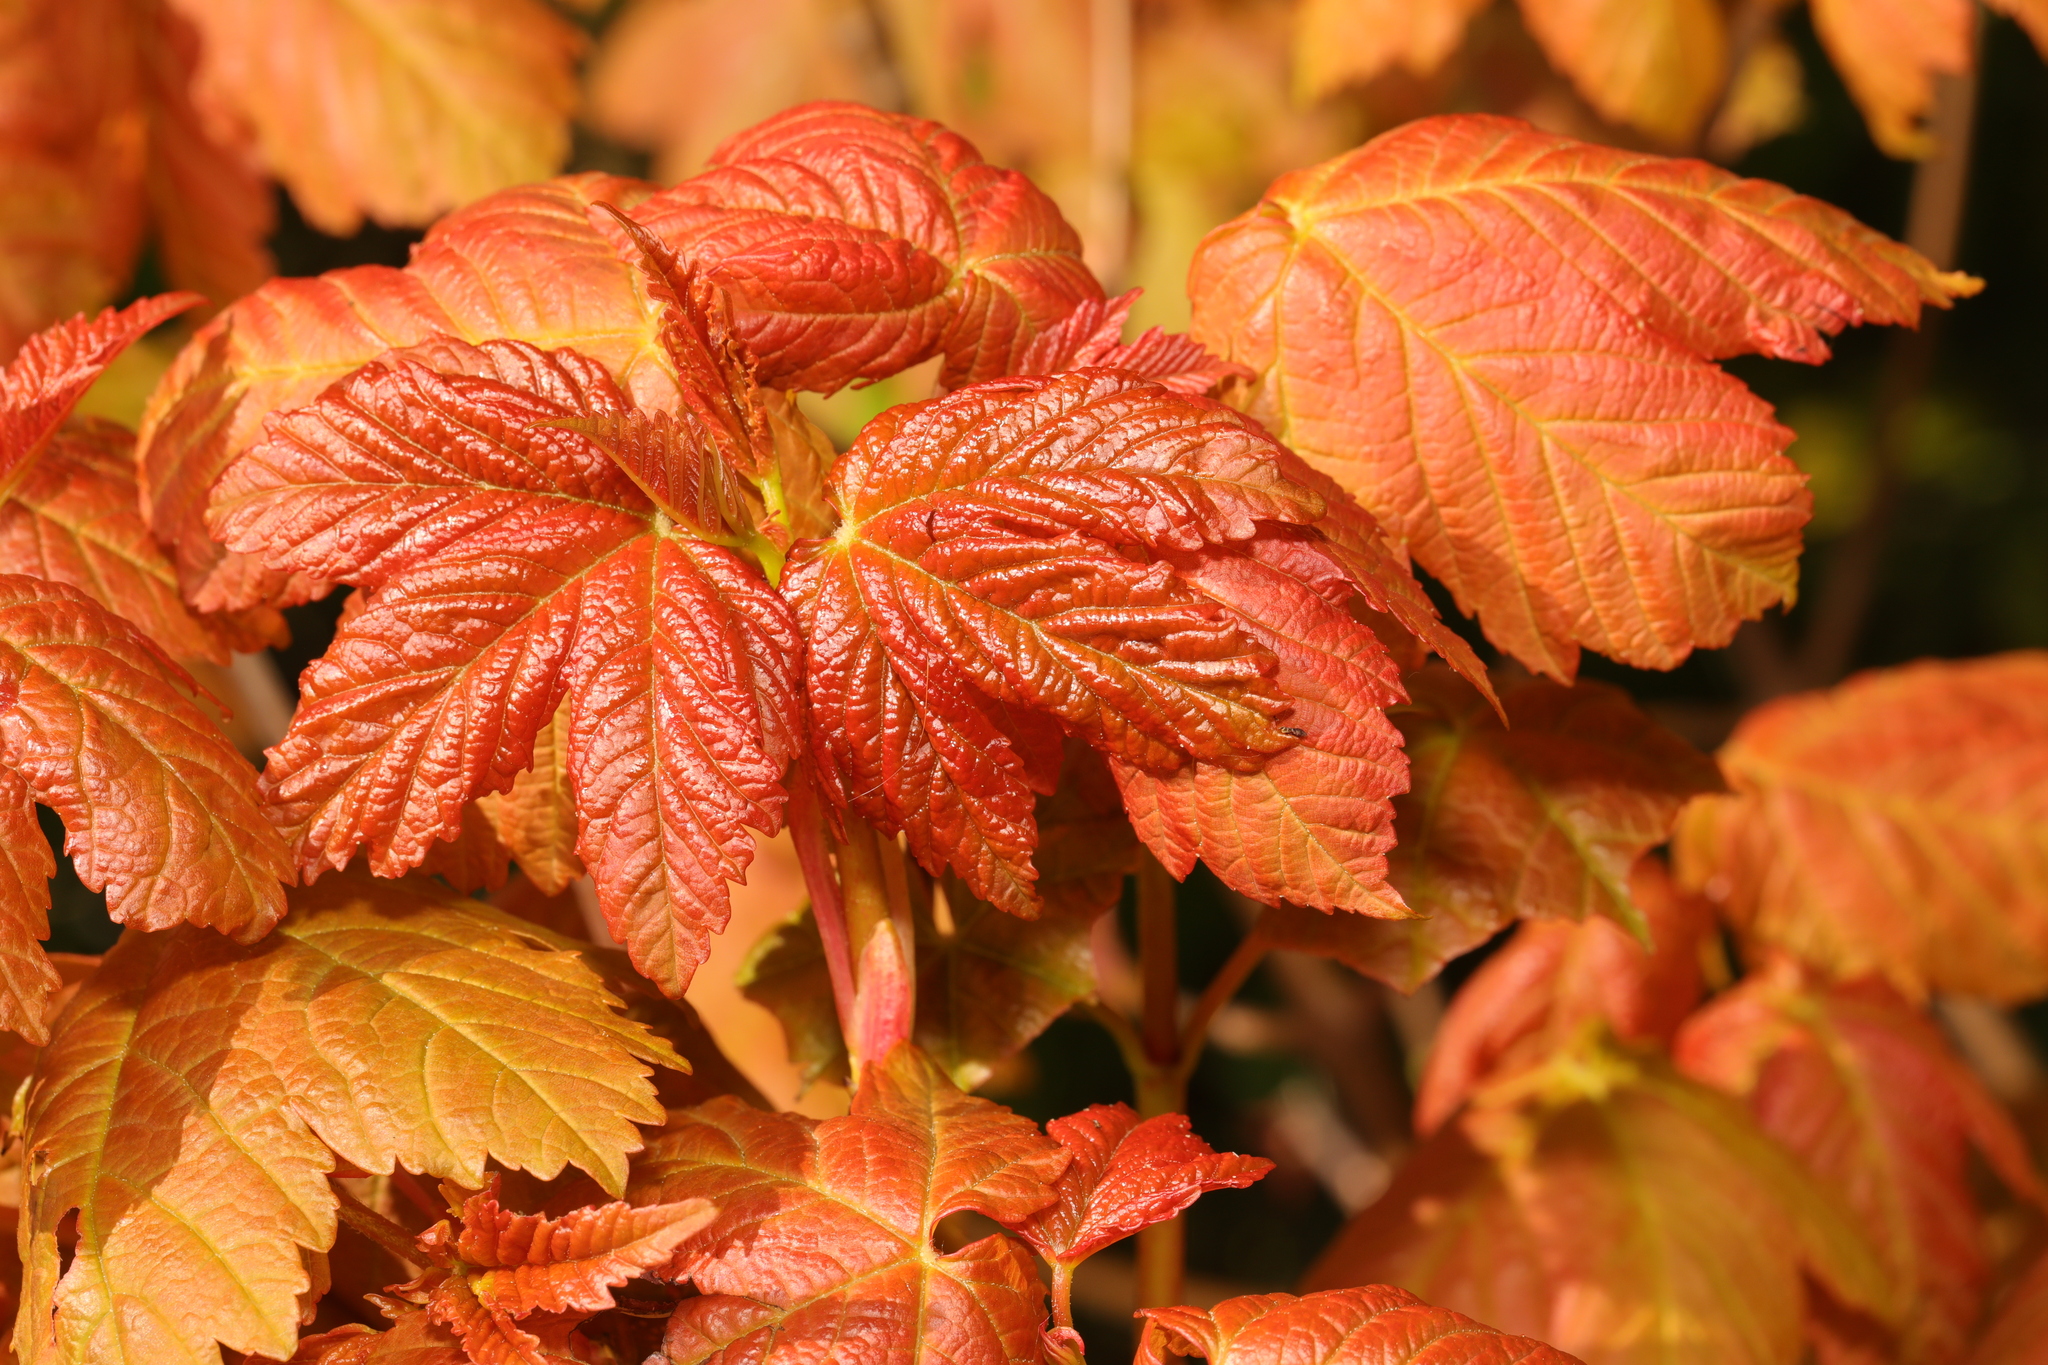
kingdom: Plantae
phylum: Tracheophyta
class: Magnoliopsida
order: Sapindales
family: Sapindaceae
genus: Acer
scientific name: Acer pseudoplatanus
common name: Sycamore
